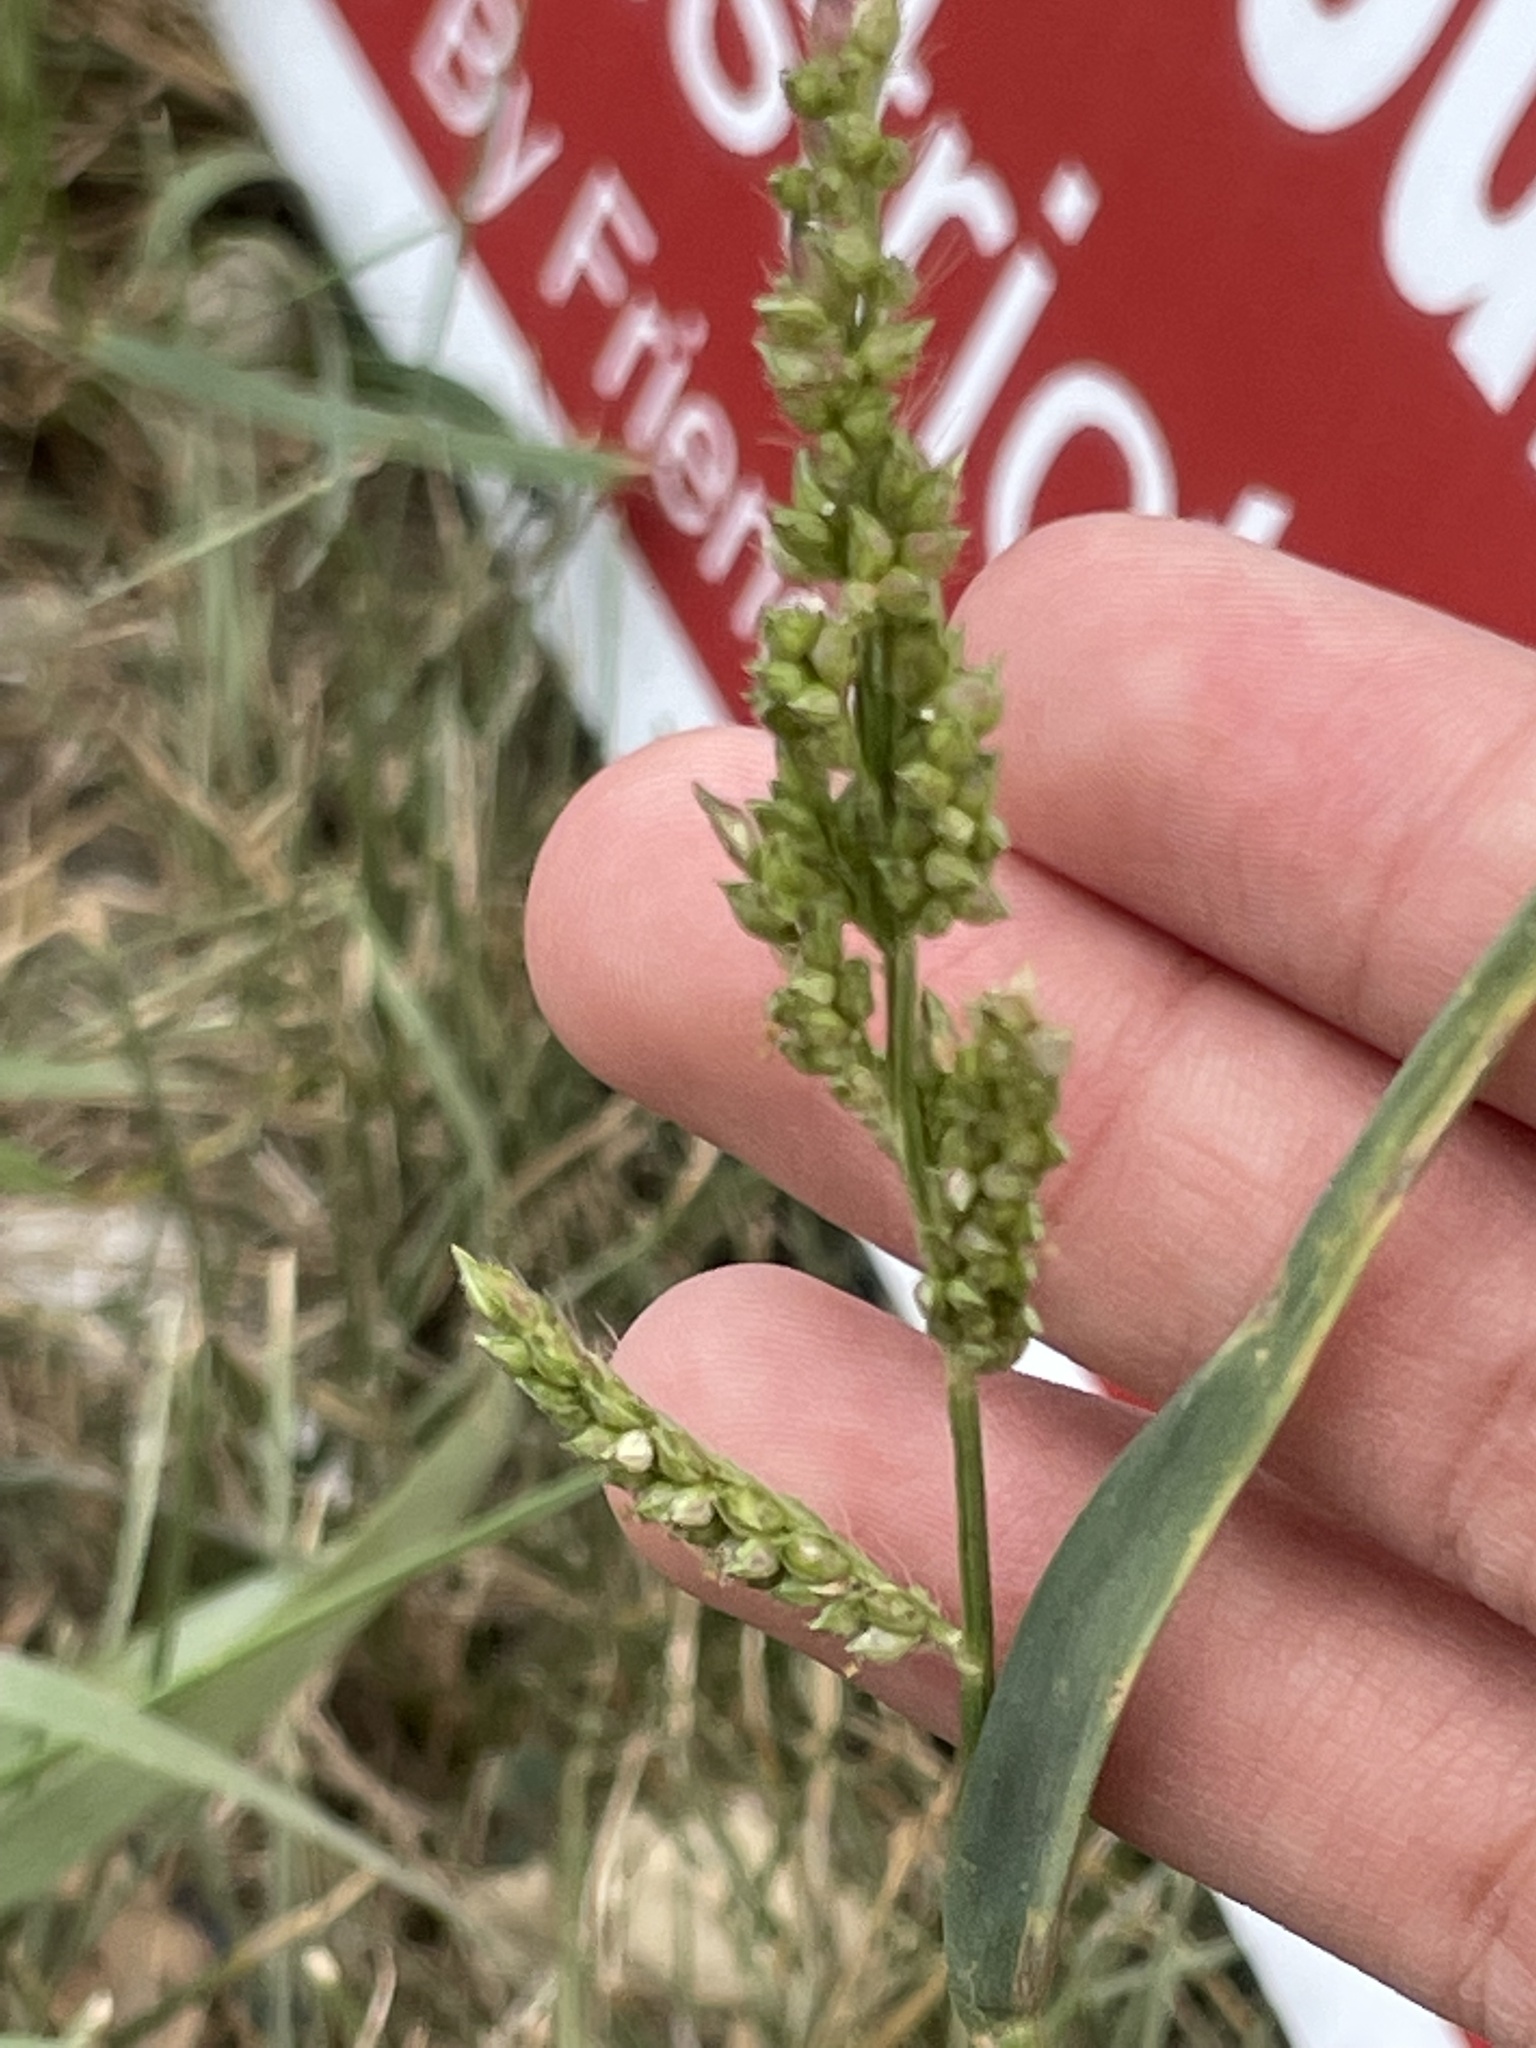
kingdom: Plantae
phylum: Tracheophyta
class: Liliopsida
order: Poales
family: Poaceae
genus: Echinochloa
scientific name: Echinochloa crus-galli
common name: Cockspur
